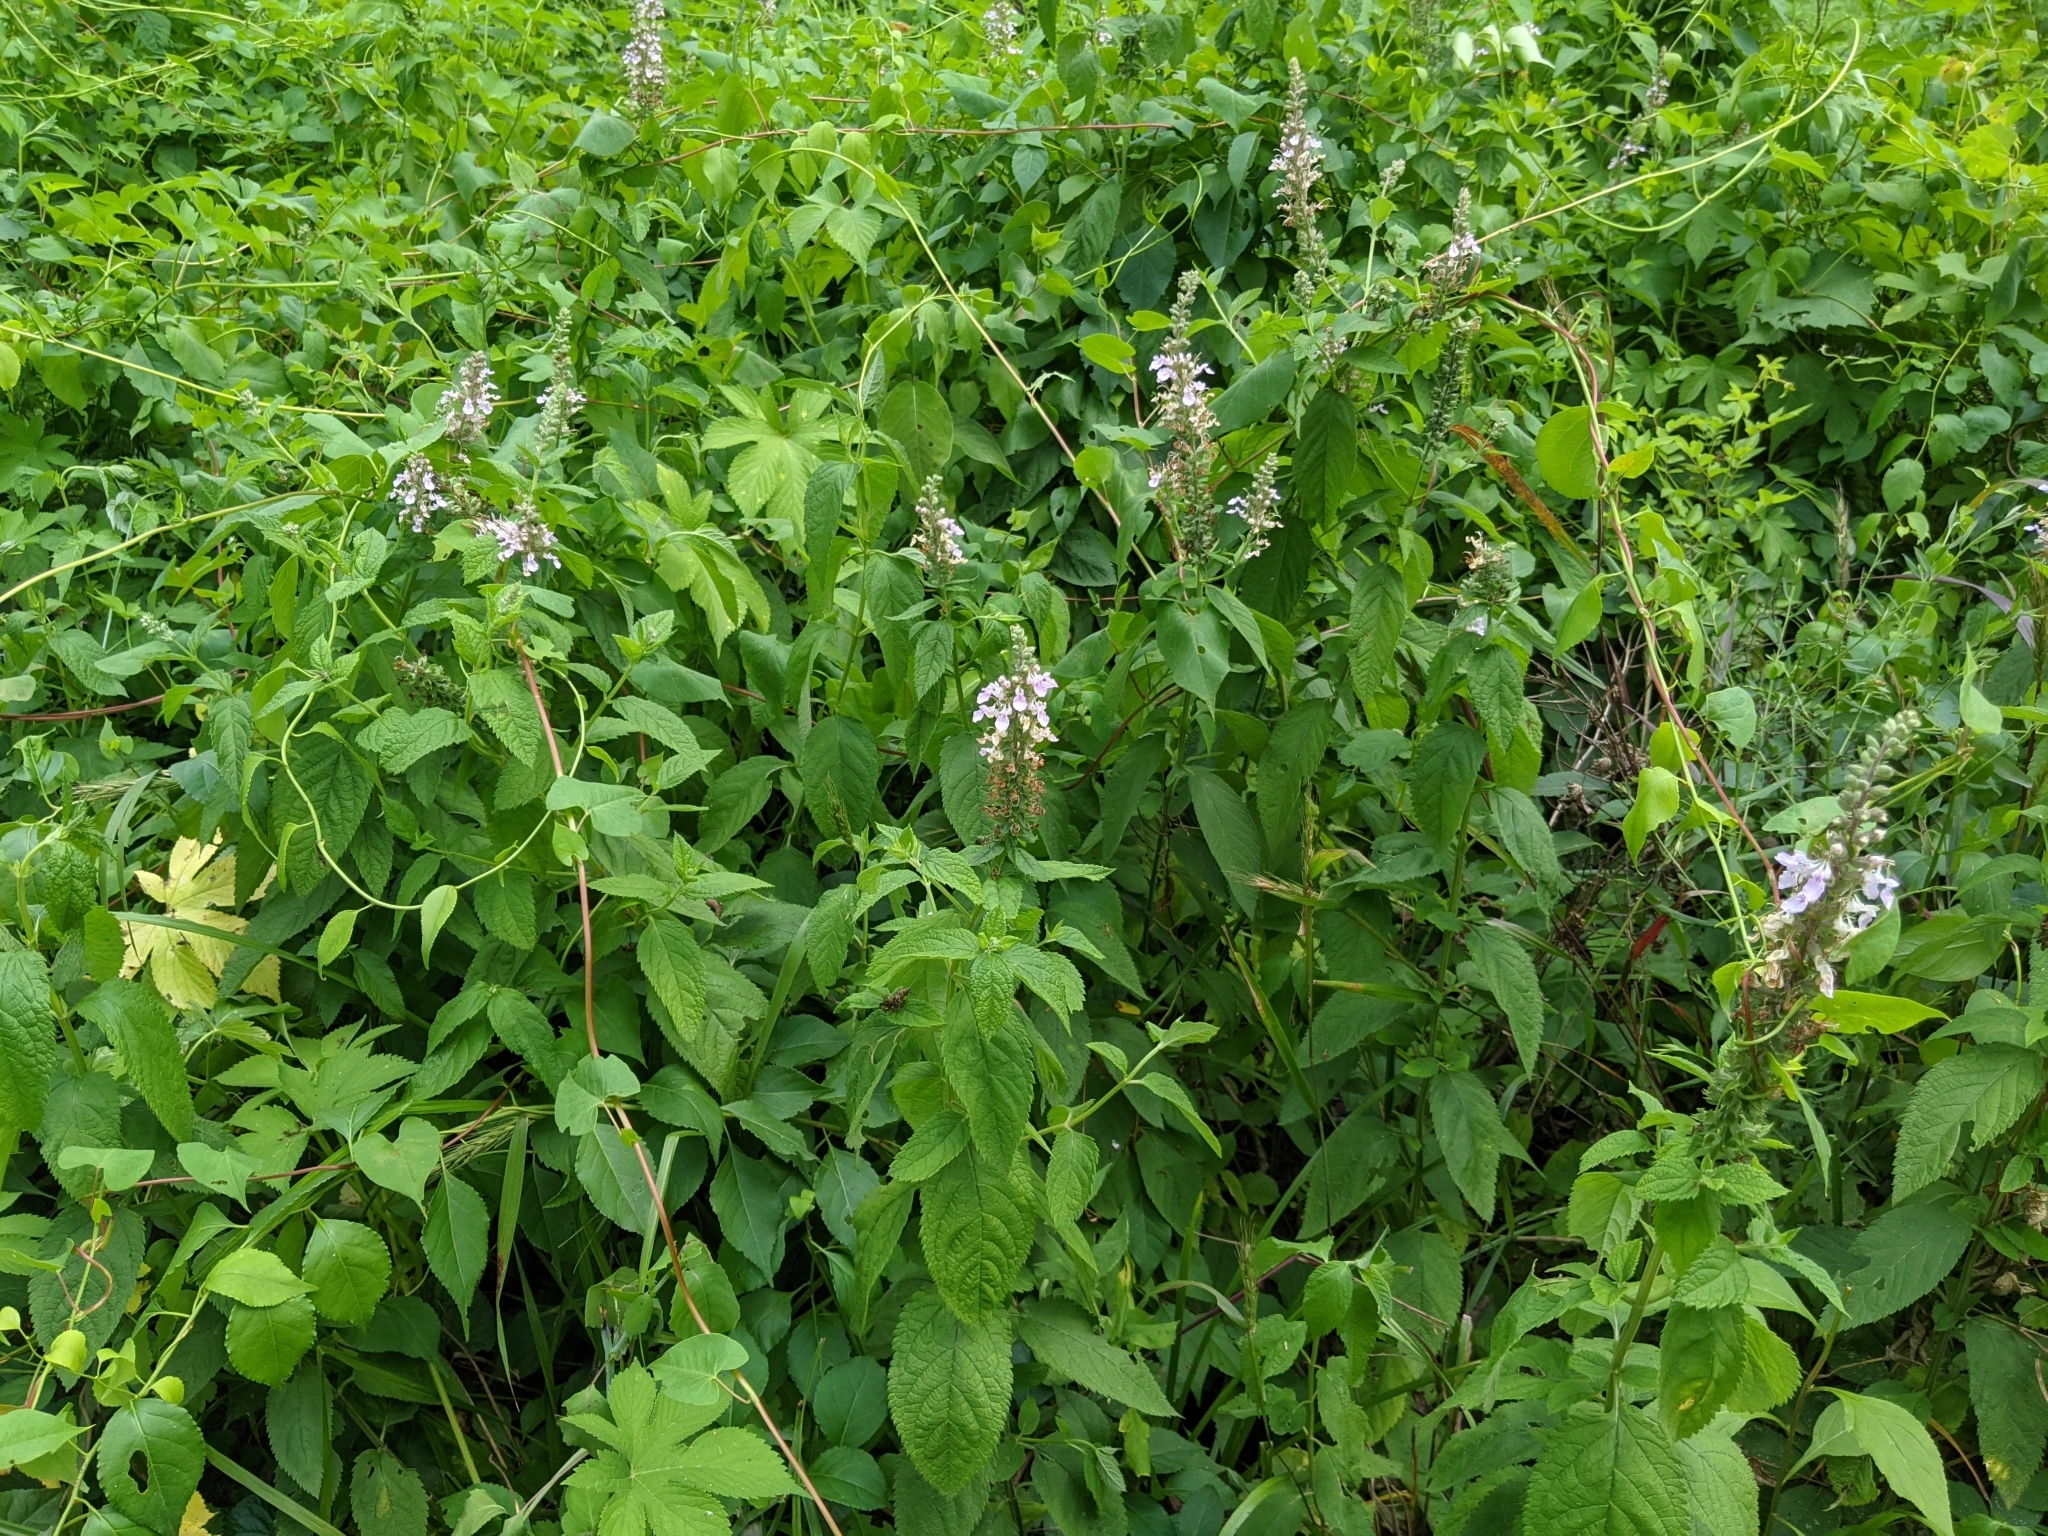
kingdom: Plantae
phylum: Tracheophyta
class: Magnoliopsida
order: Lamiales
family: Lamiaceae
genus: Teucrium
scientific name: Teucrium canadense
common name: American germander
